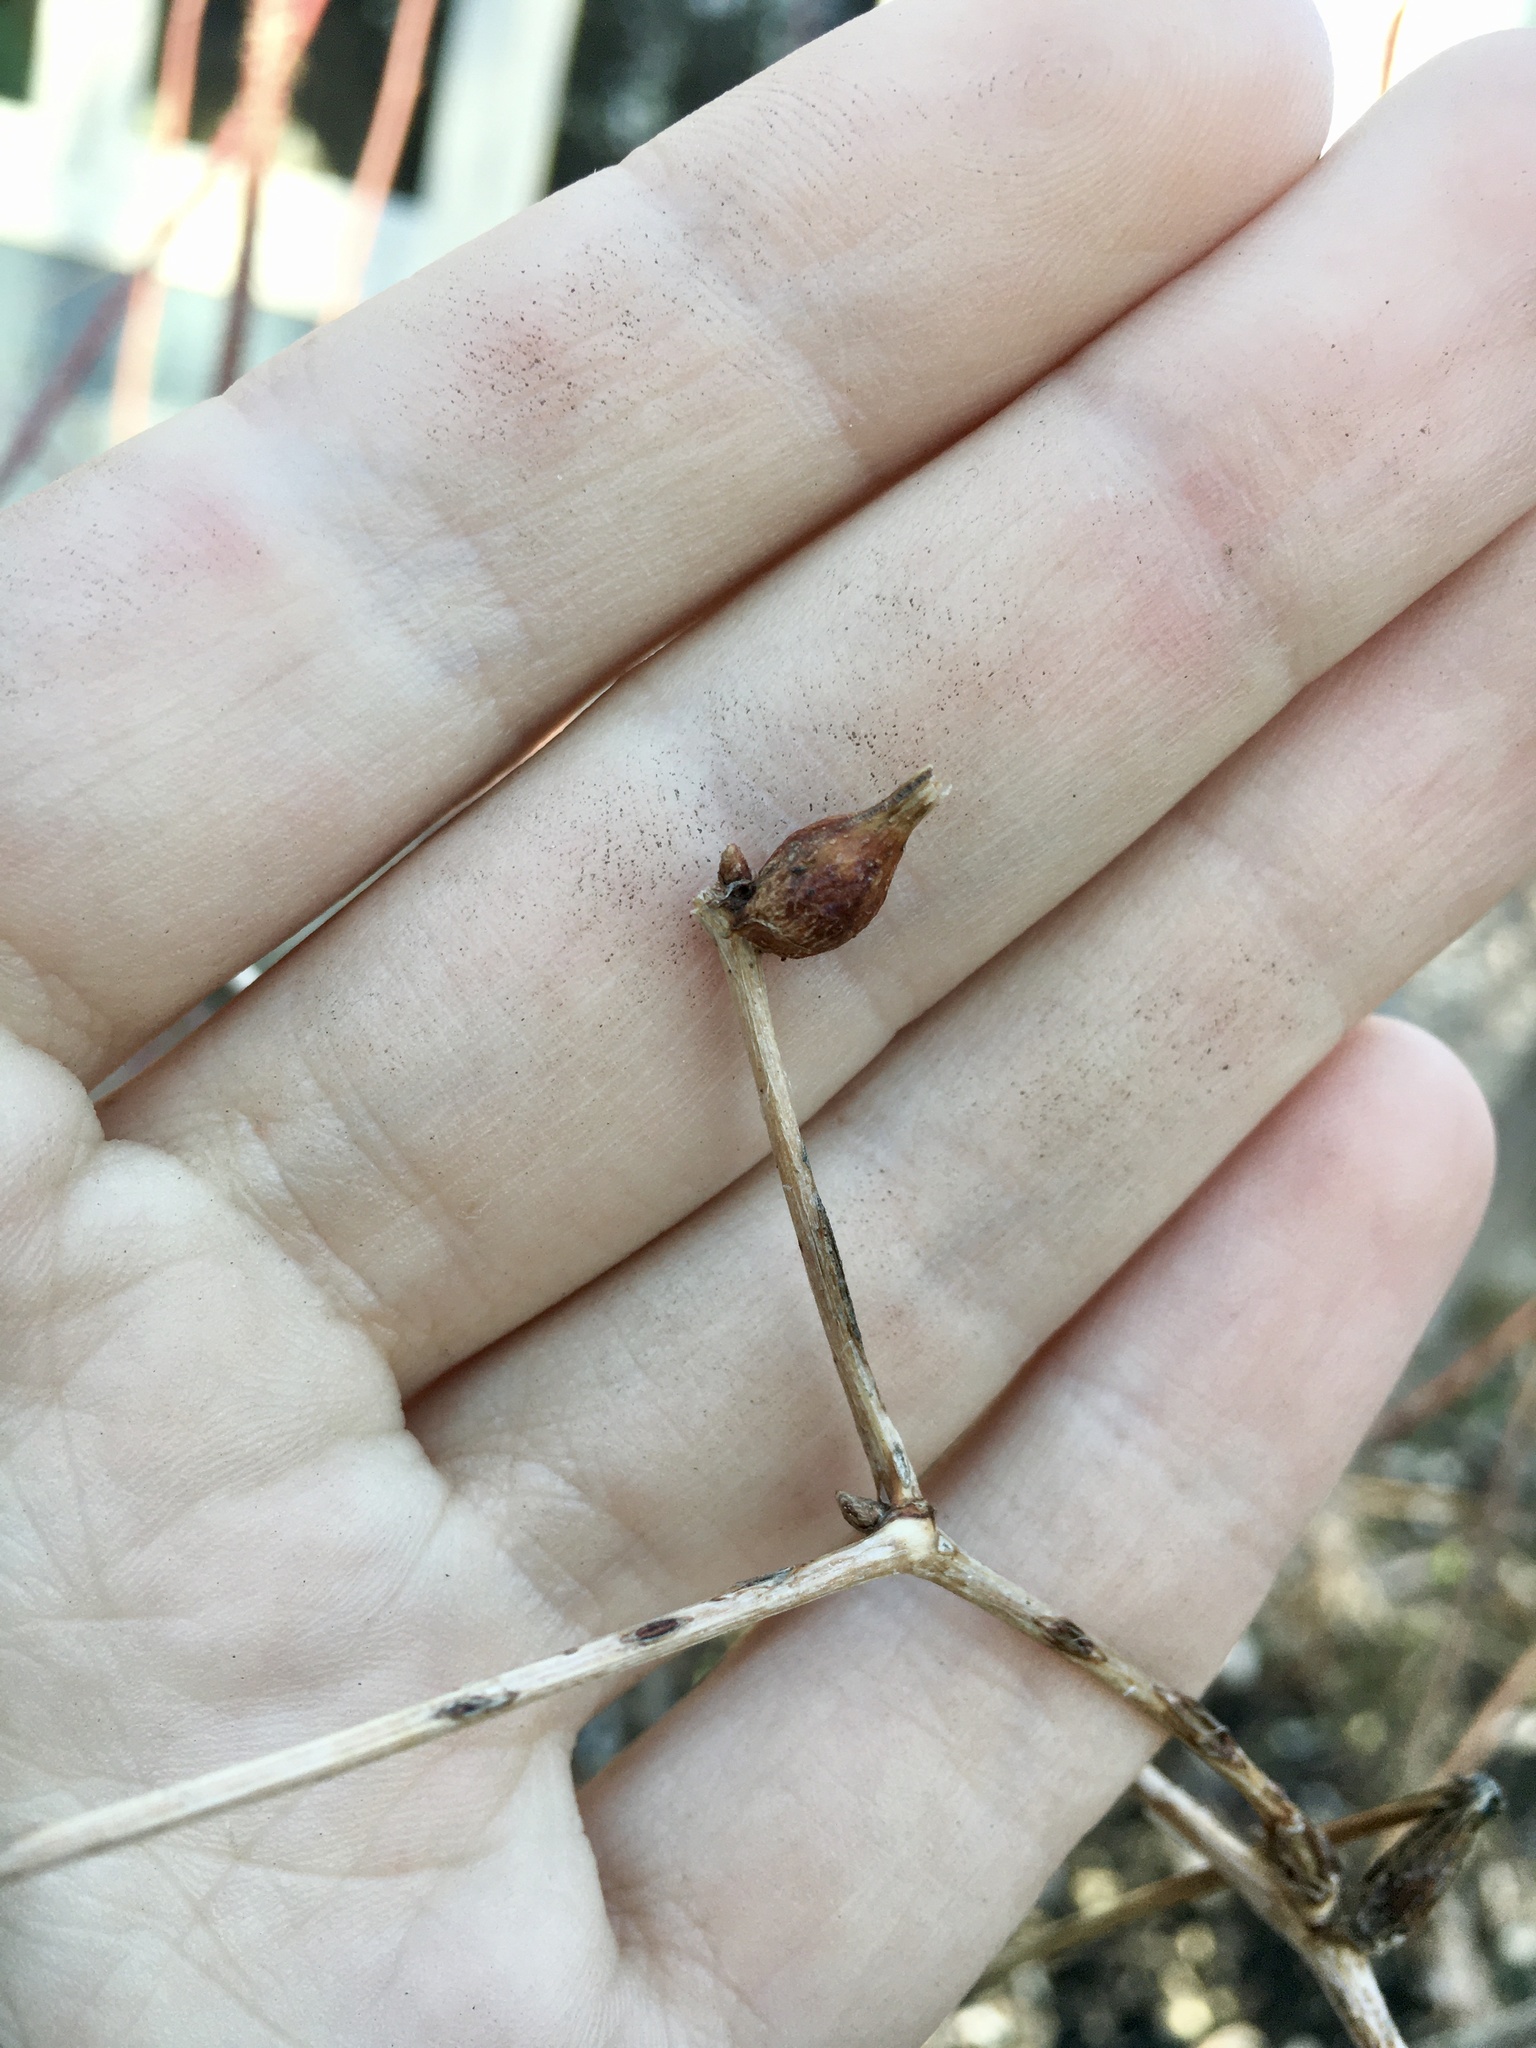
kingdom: Animalia
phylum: Arthropoda
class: Insecta
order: Diptera
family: Cecidomyiidae
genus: Neolasioptera
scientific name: Neolasioptera vitinea
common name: Grape leaf petiole gall
